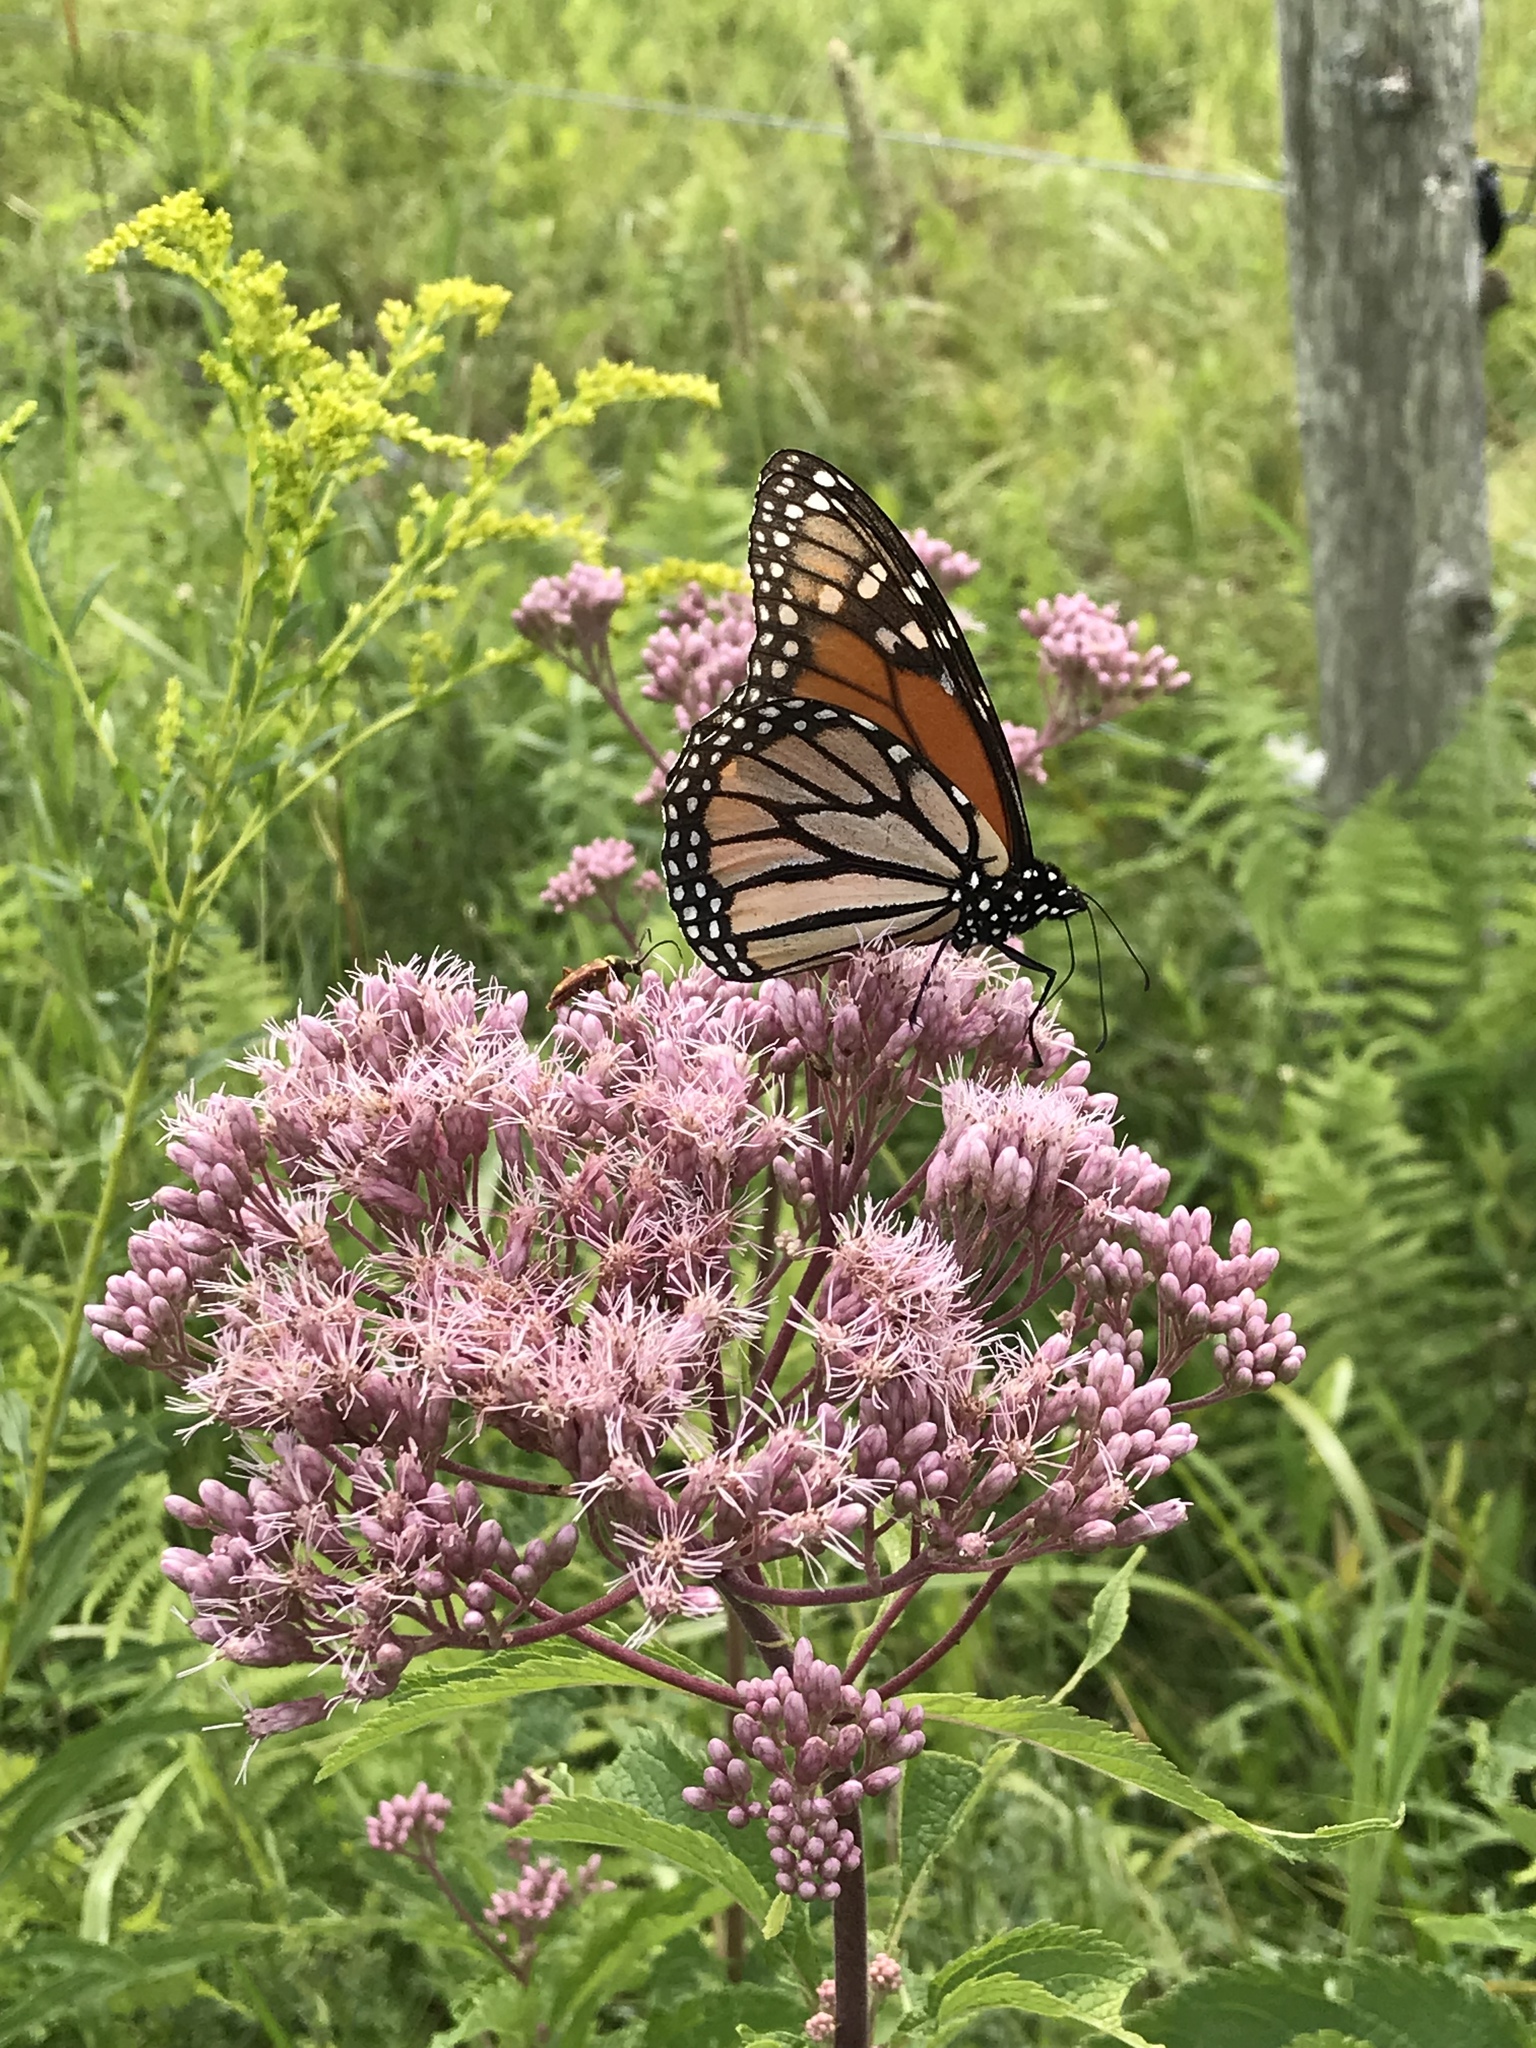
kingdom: Animalia
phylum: Arthropoda
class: Insecta
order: Lepidoptera
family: Nymphalidae
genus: Danaus
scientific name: Danaus plexippus
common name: Monarch
